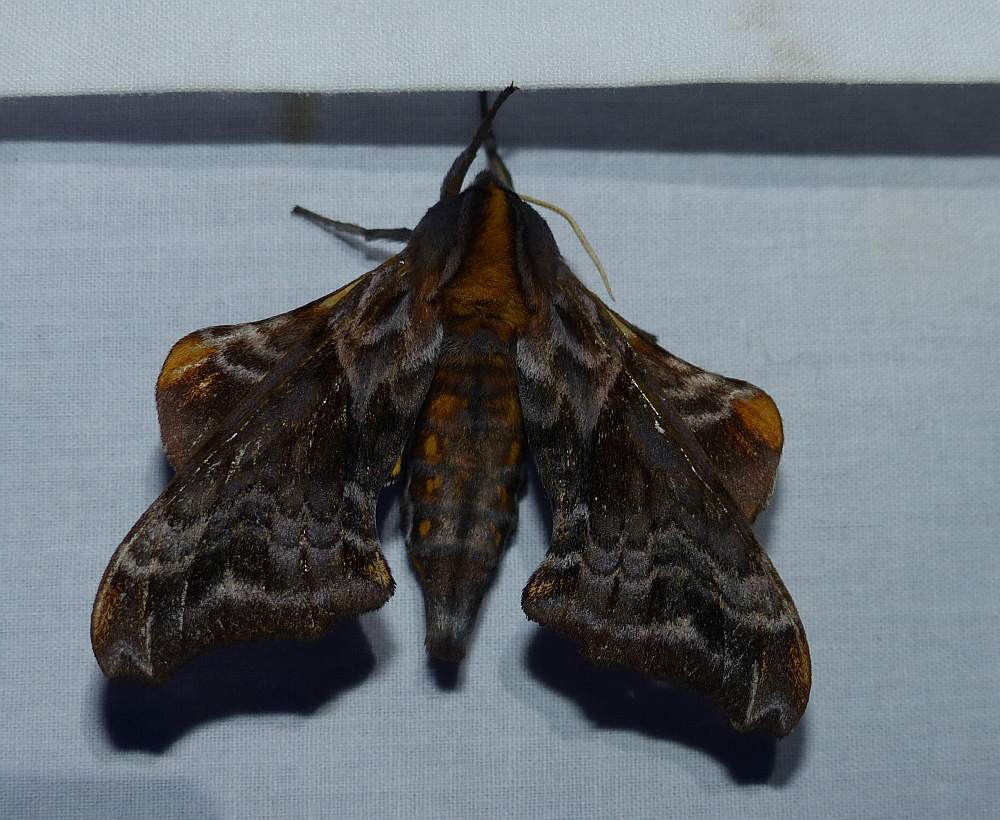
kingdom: Animalia
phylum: Arthropoda
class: Insecta
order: Lepidoptera
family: Sphingidae
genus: Paonias
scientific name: Paonias myops
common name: Small-eyed sphinx
